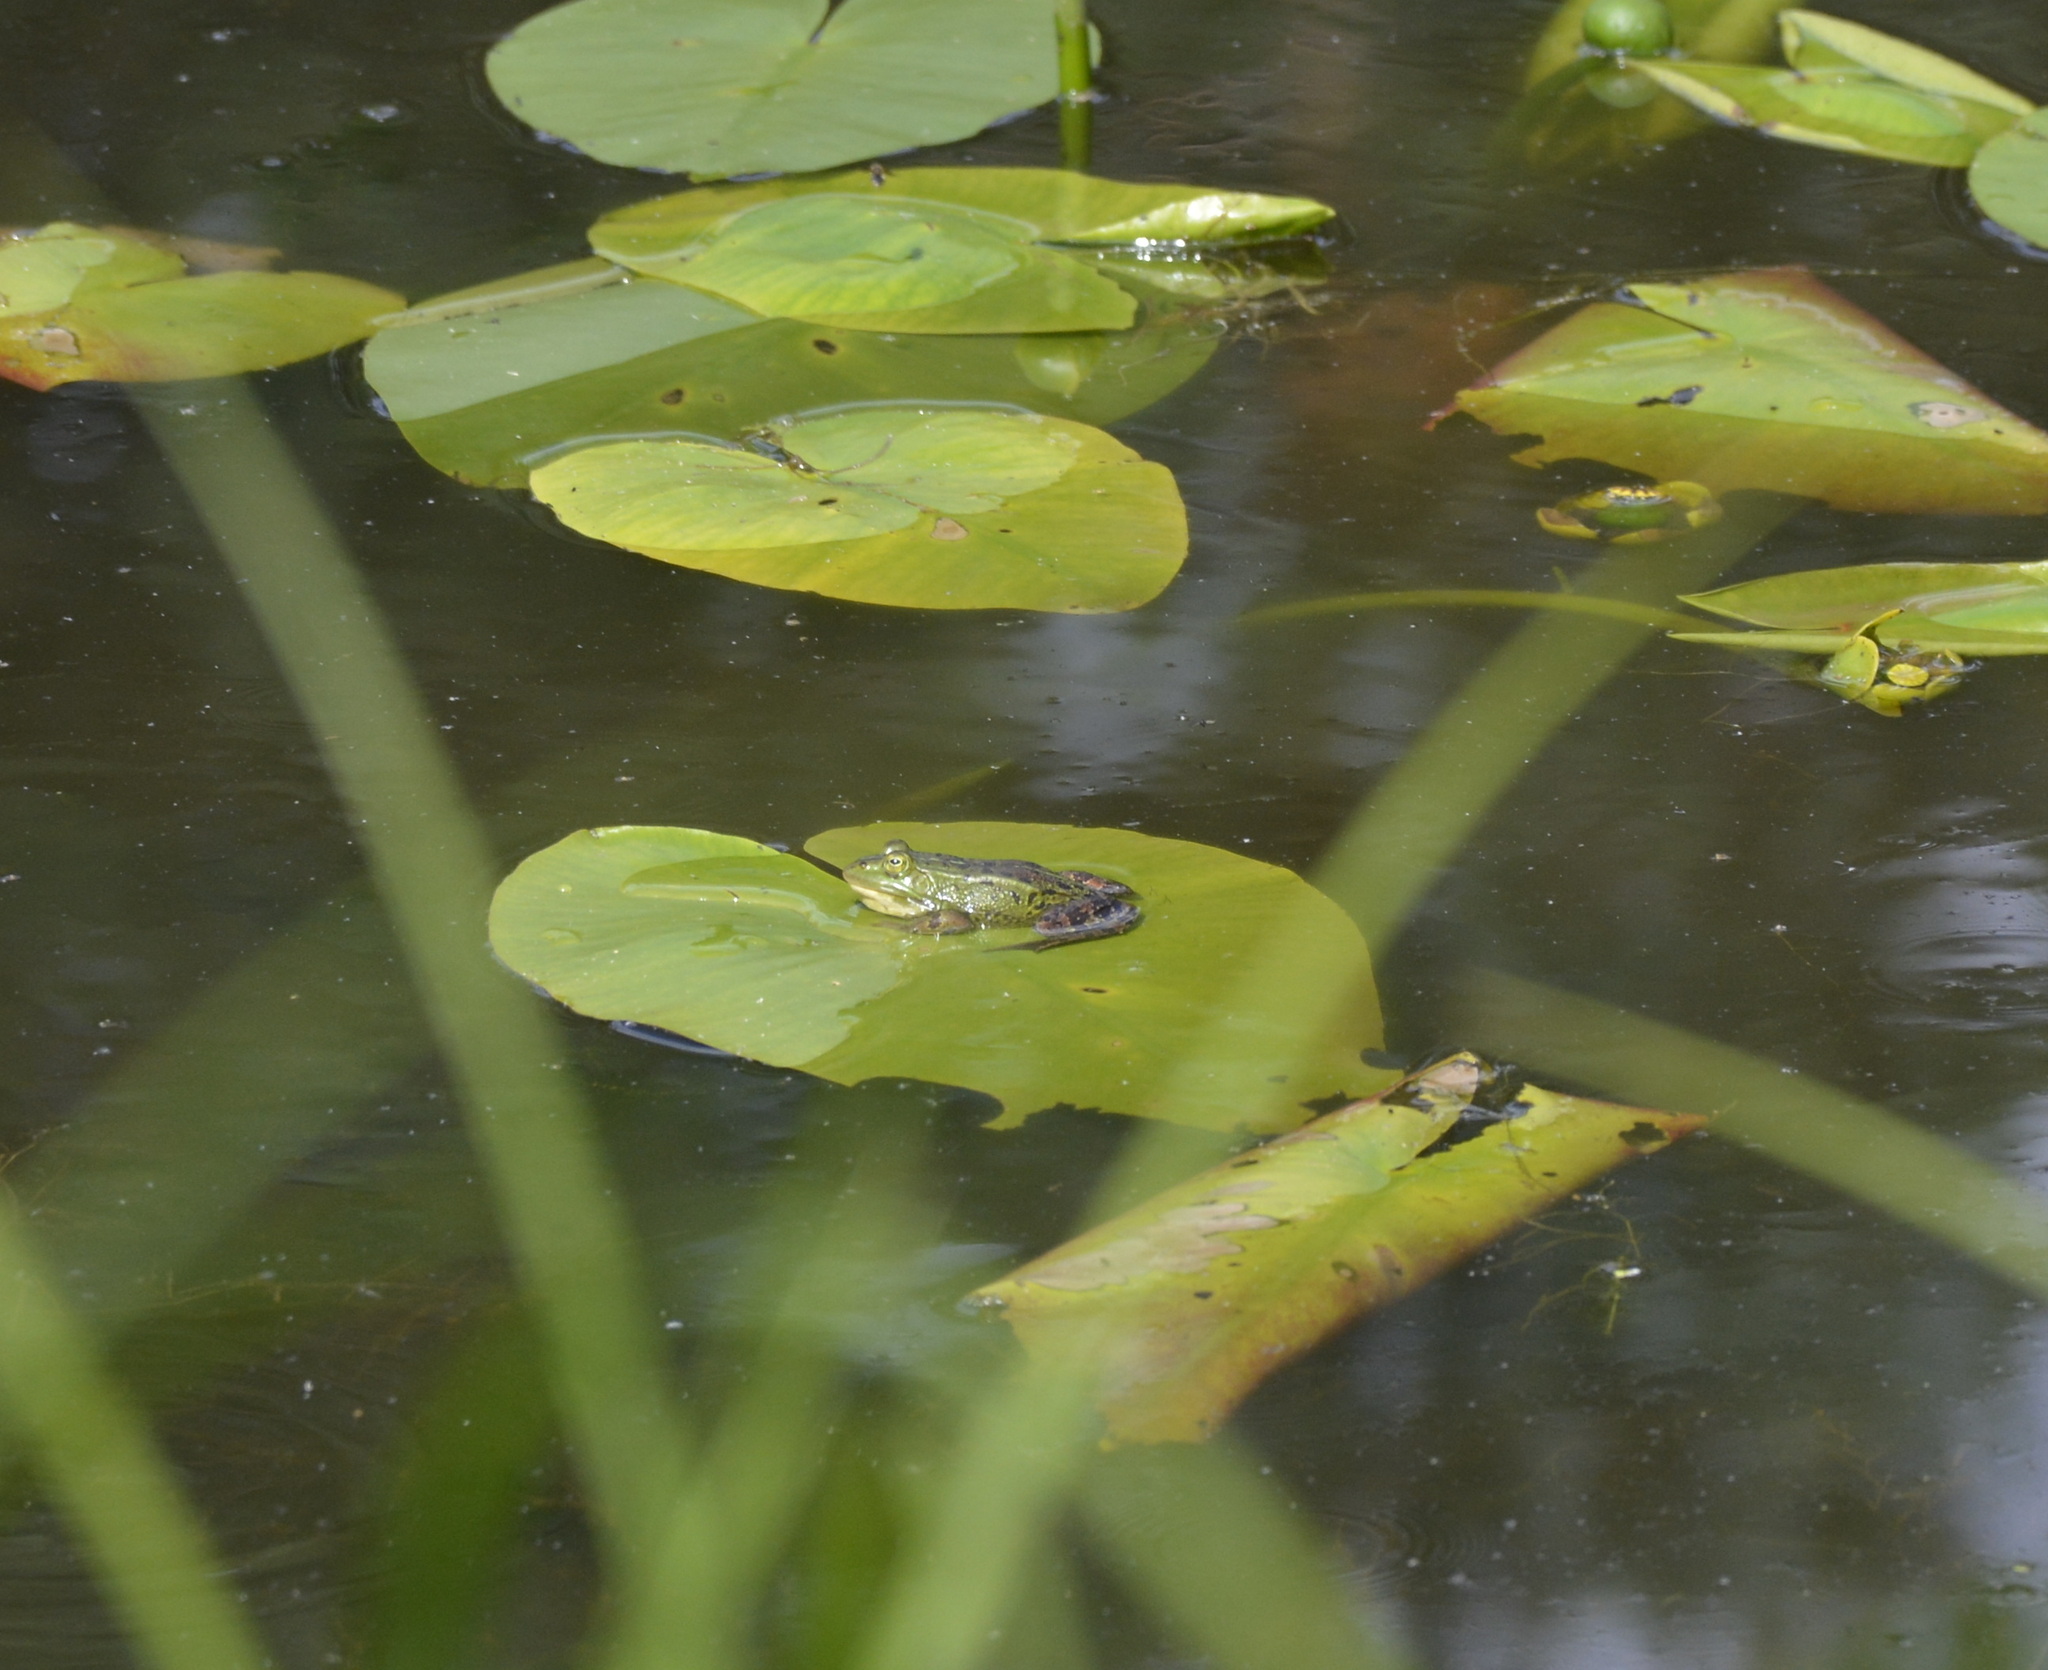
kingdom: Animalia
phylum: Chordata
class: Amphibia
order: Anura
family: Ranidae
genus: Pelophylax
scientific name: Pelophylax lessonae
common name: Pool frog
